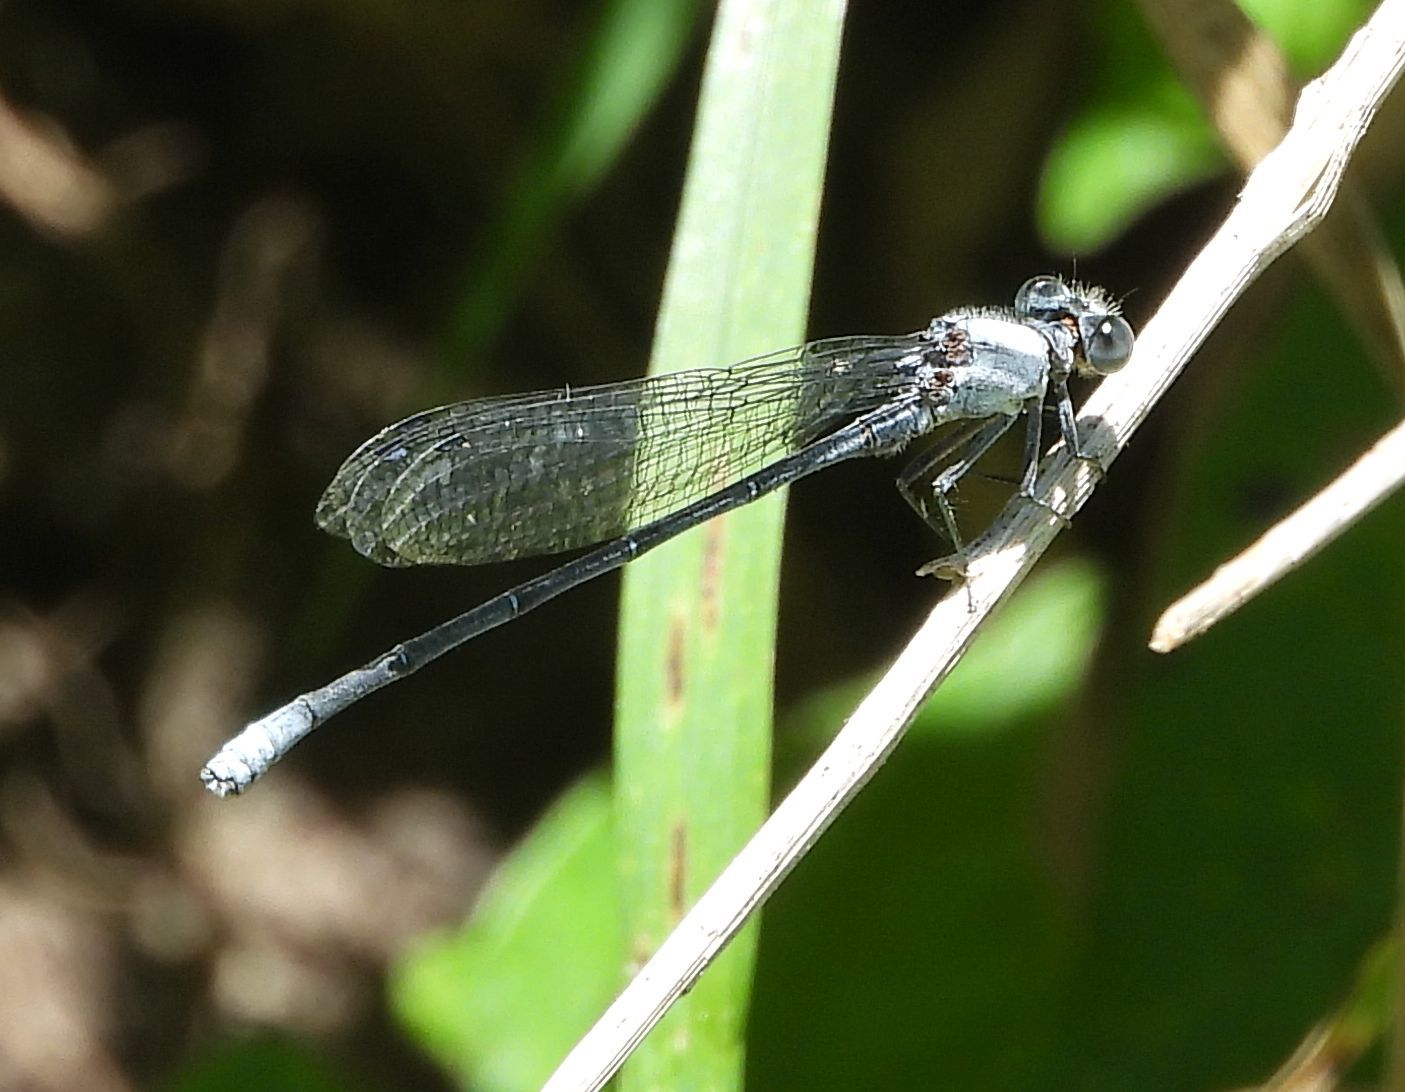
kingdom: Animalia
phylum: Arthropoda
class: Insecta
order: Odonata
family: Coenagrionidae
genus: Argia
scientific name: Argia moesta
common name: Powdered dancer
